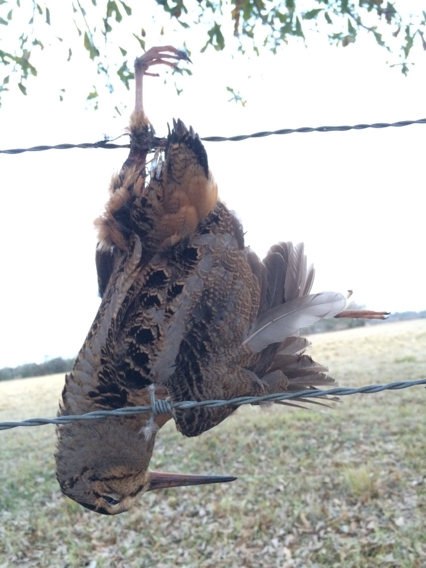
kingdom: Animalia
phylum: Chordata
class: Aves
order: Charadriiformes
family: Scolopacidae
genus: Scolopax
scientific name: Scolopax minor
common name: American woodcock
